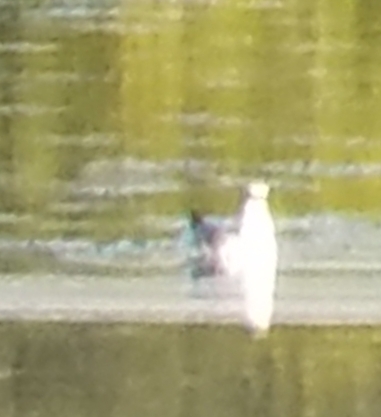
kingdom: Animalia
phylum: Chordata
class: Aves
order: Charadriiformes
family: Laridae
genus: Larus
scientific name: Larus delawarensis
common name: Ring-billed gull
